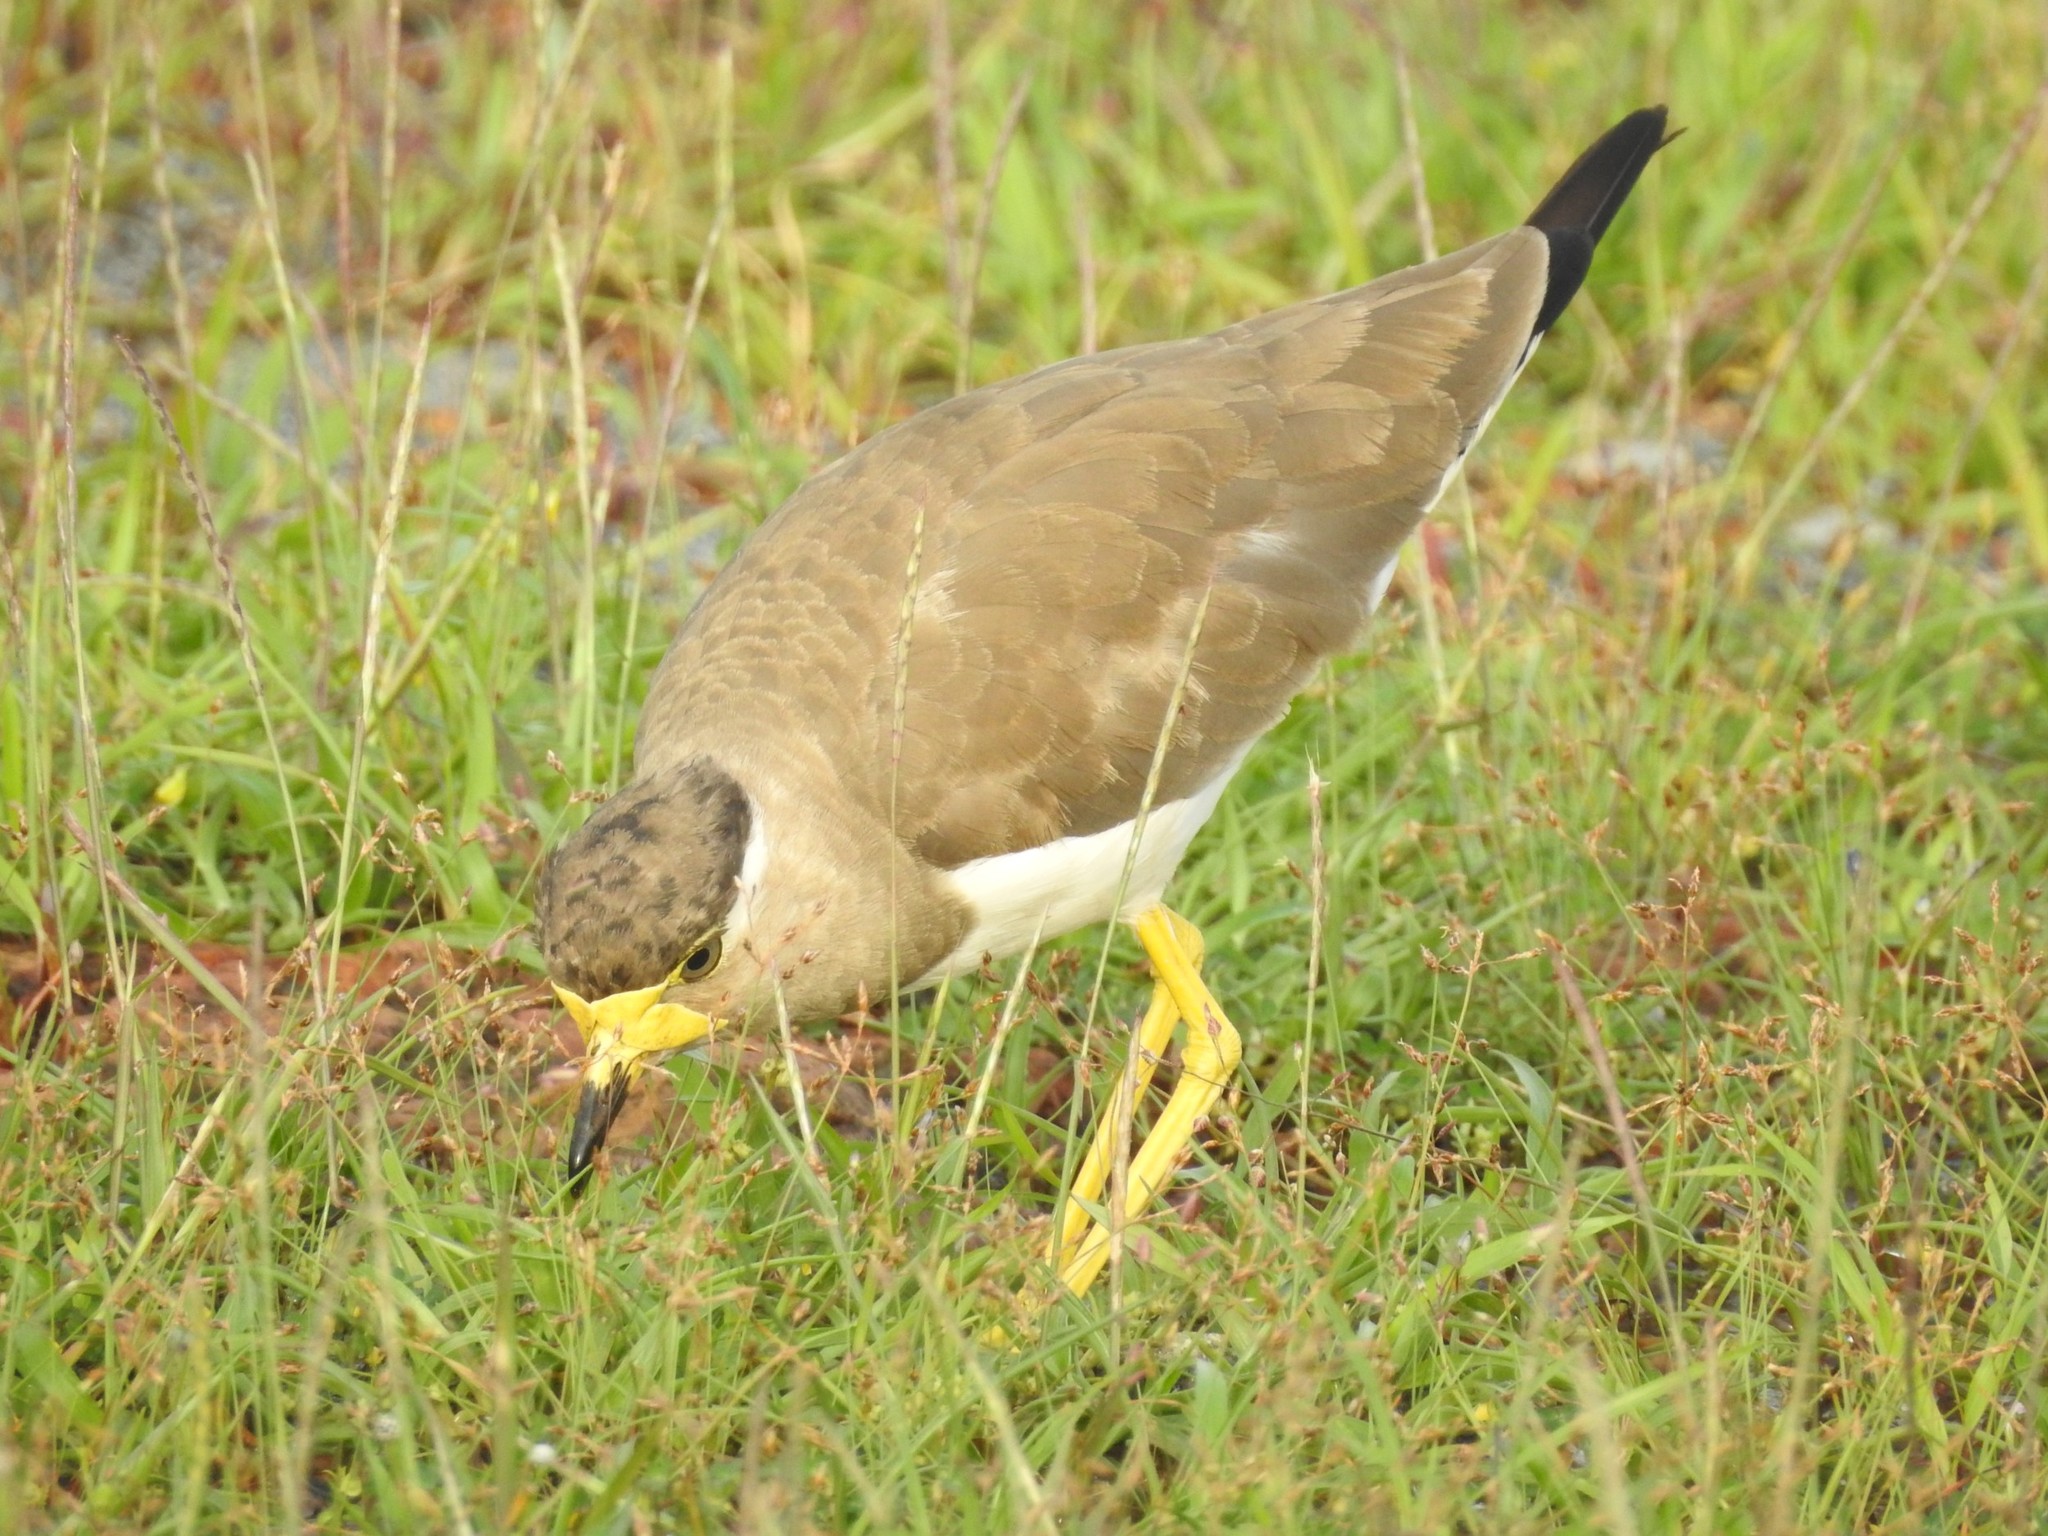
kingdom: Animalia
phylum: Chordata
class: Aves
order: Charadriiformes
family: Charadriidae
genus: Vanellus
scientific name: Vanellus malabaricus
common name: Yellow-wattled lapwing
